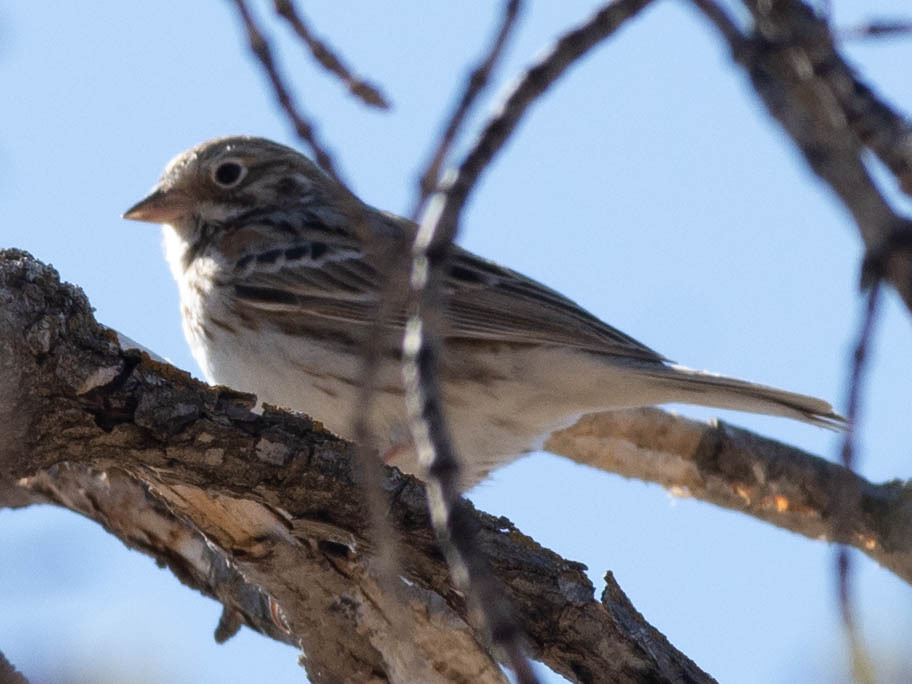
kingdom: Animalia
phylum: Chordata
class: Aves
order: Passeriformes
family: Passerellidae
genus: Pooecetes
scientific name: Pooecetes gramineus
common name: Vesper sparrow
